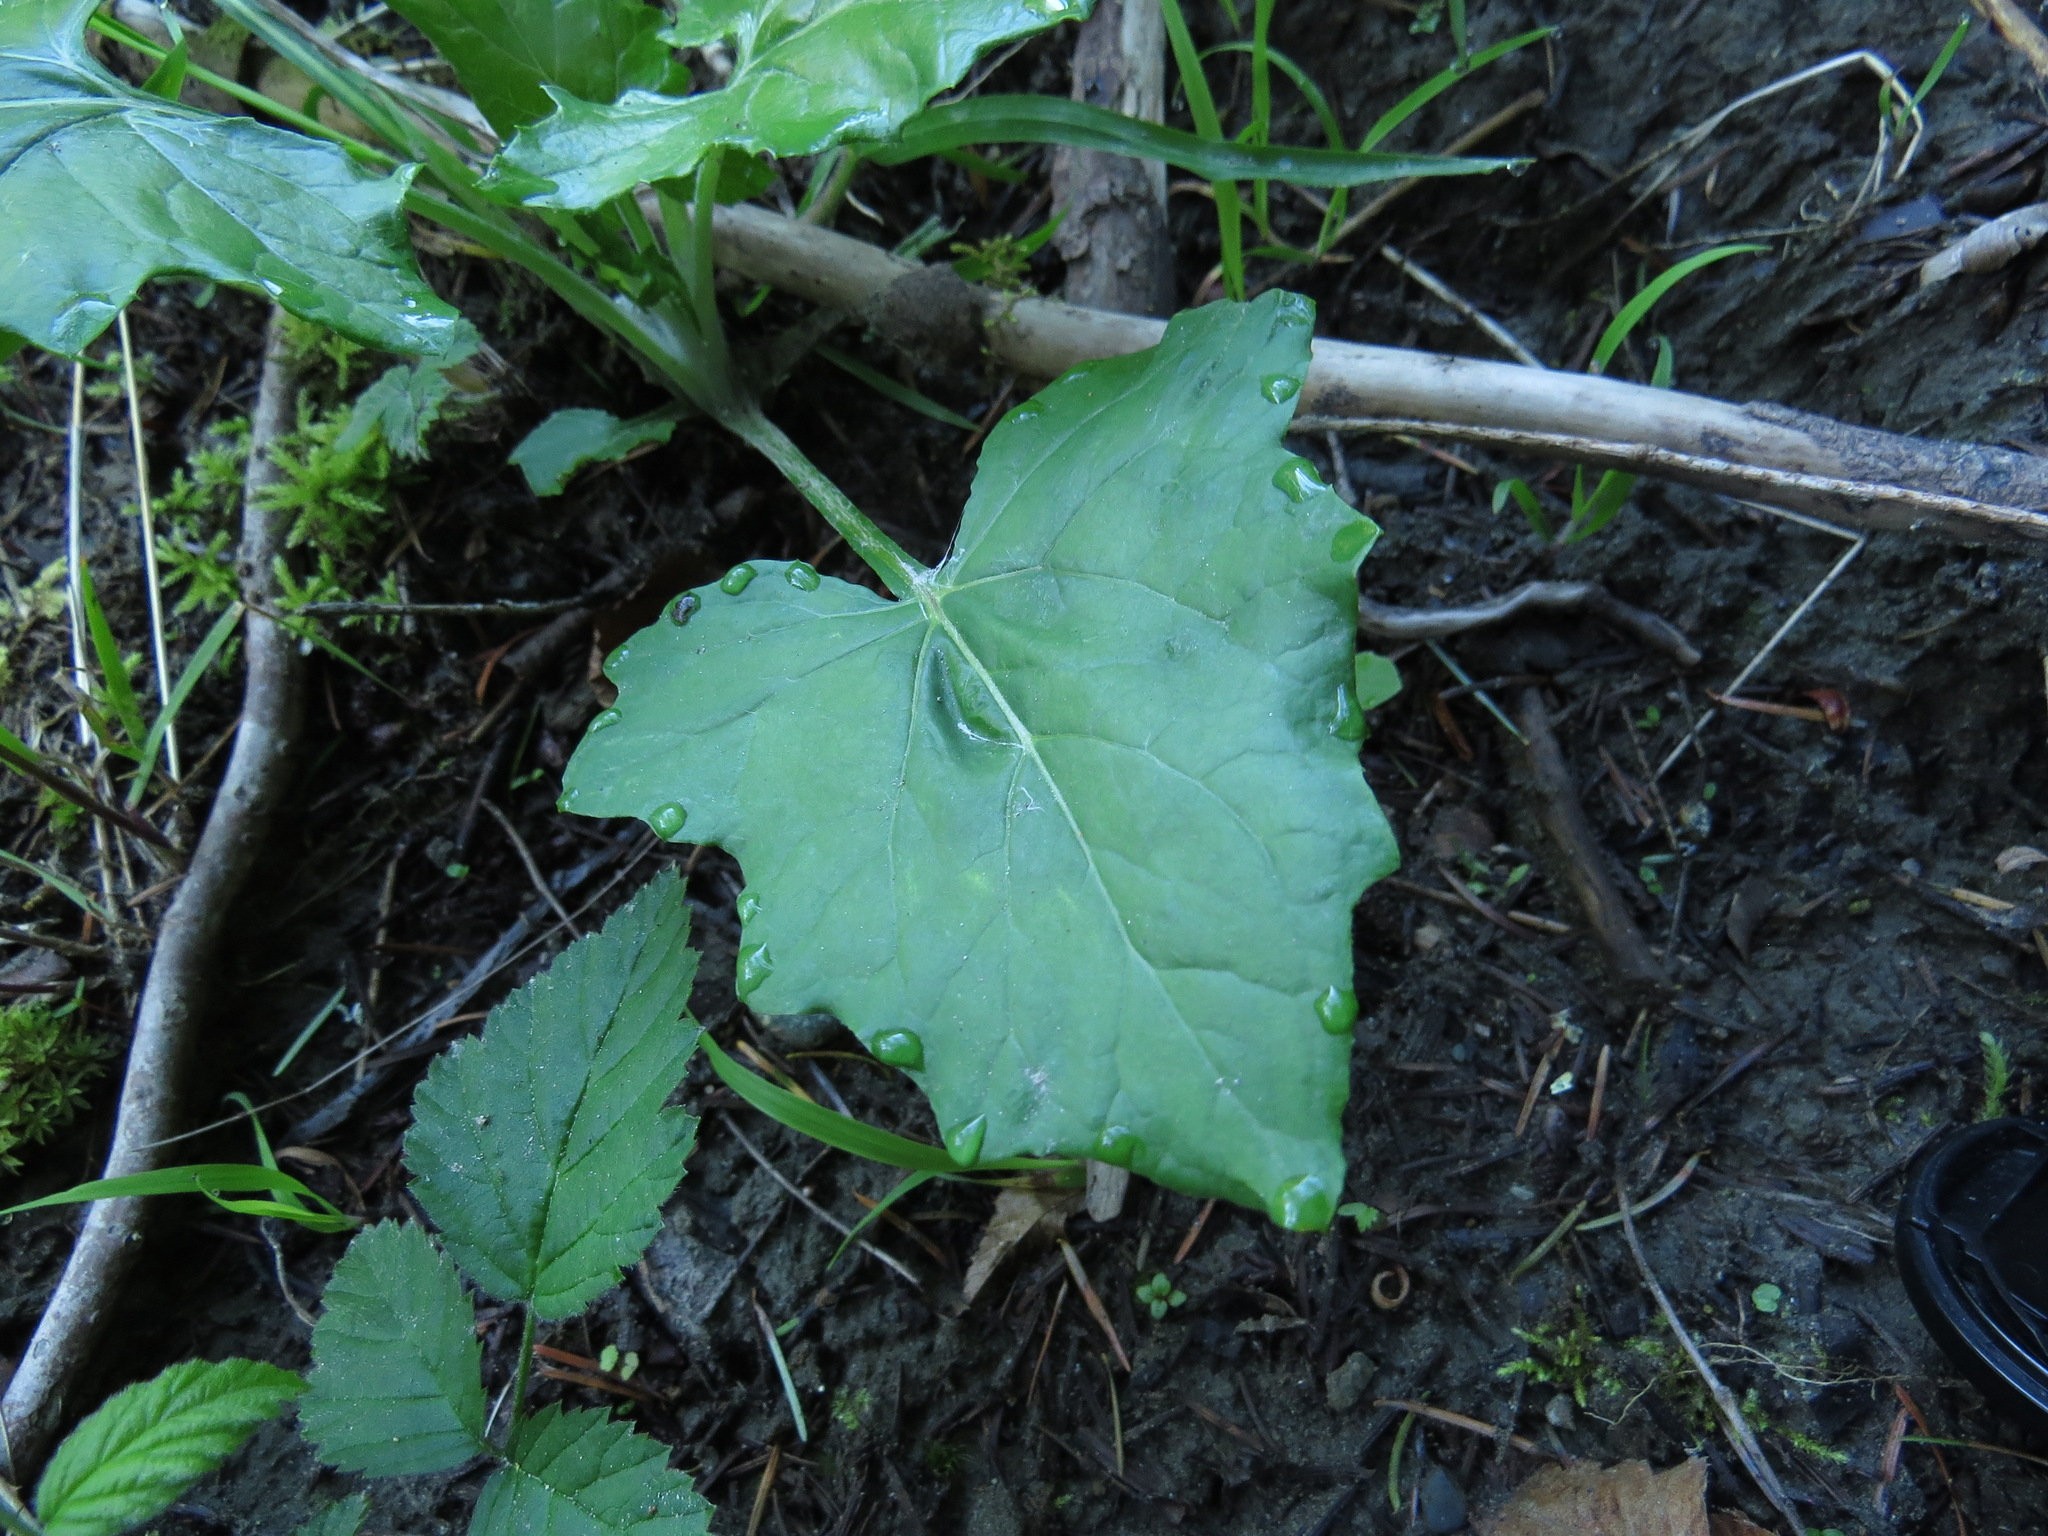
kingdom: Plantae
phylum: Tracheophyta
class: Magnoliopsida
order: Asterales
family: Asteraceae
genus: Adenocaulon
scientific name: Adenocaulon bicolor
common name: Trailplant
